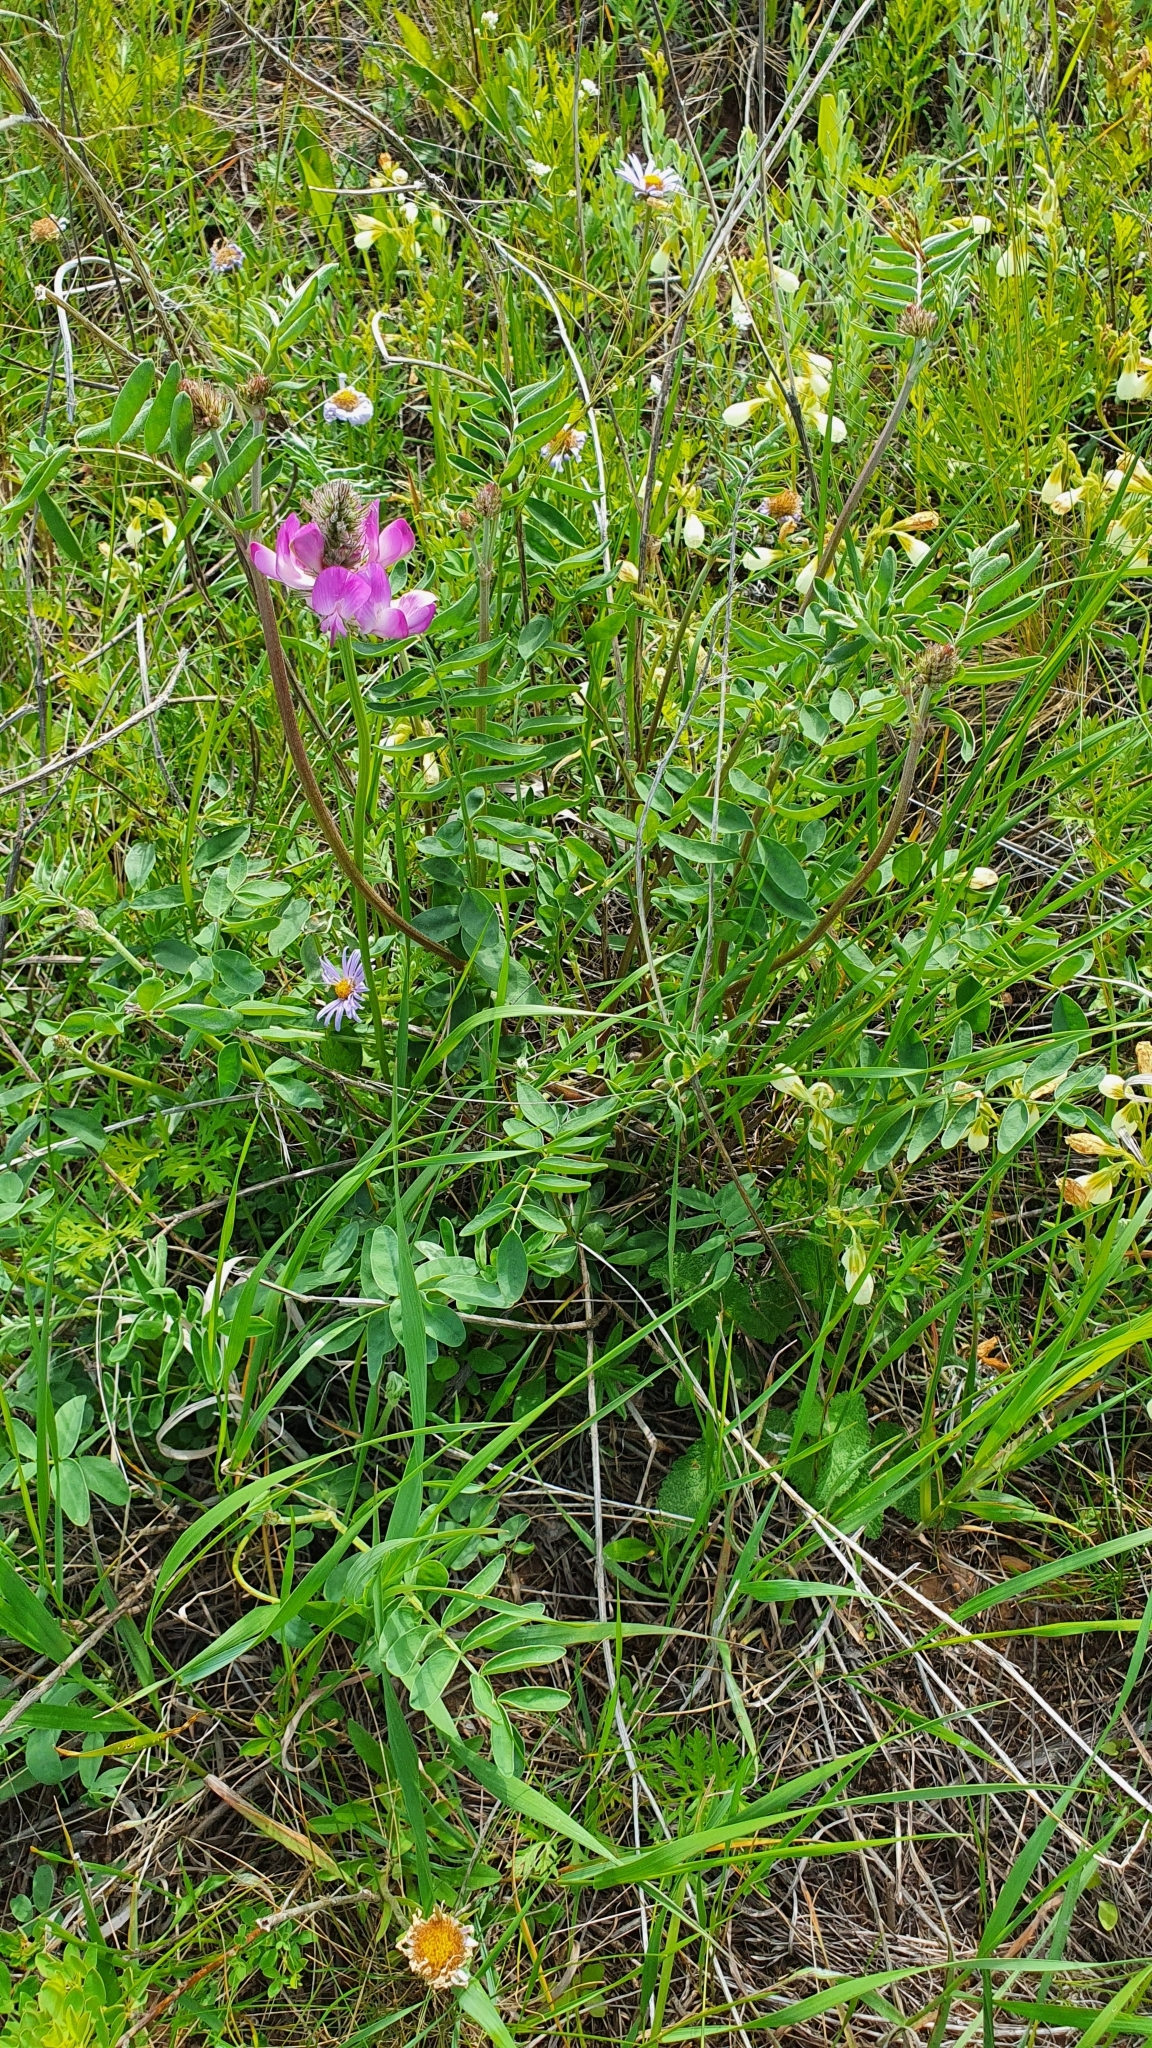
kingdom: Plantae
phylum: Tracheophyta
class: Magnoliopsida
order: Fabales
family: Fabaceae
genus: Hedysarum
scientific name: Hedysarum gmelinii
